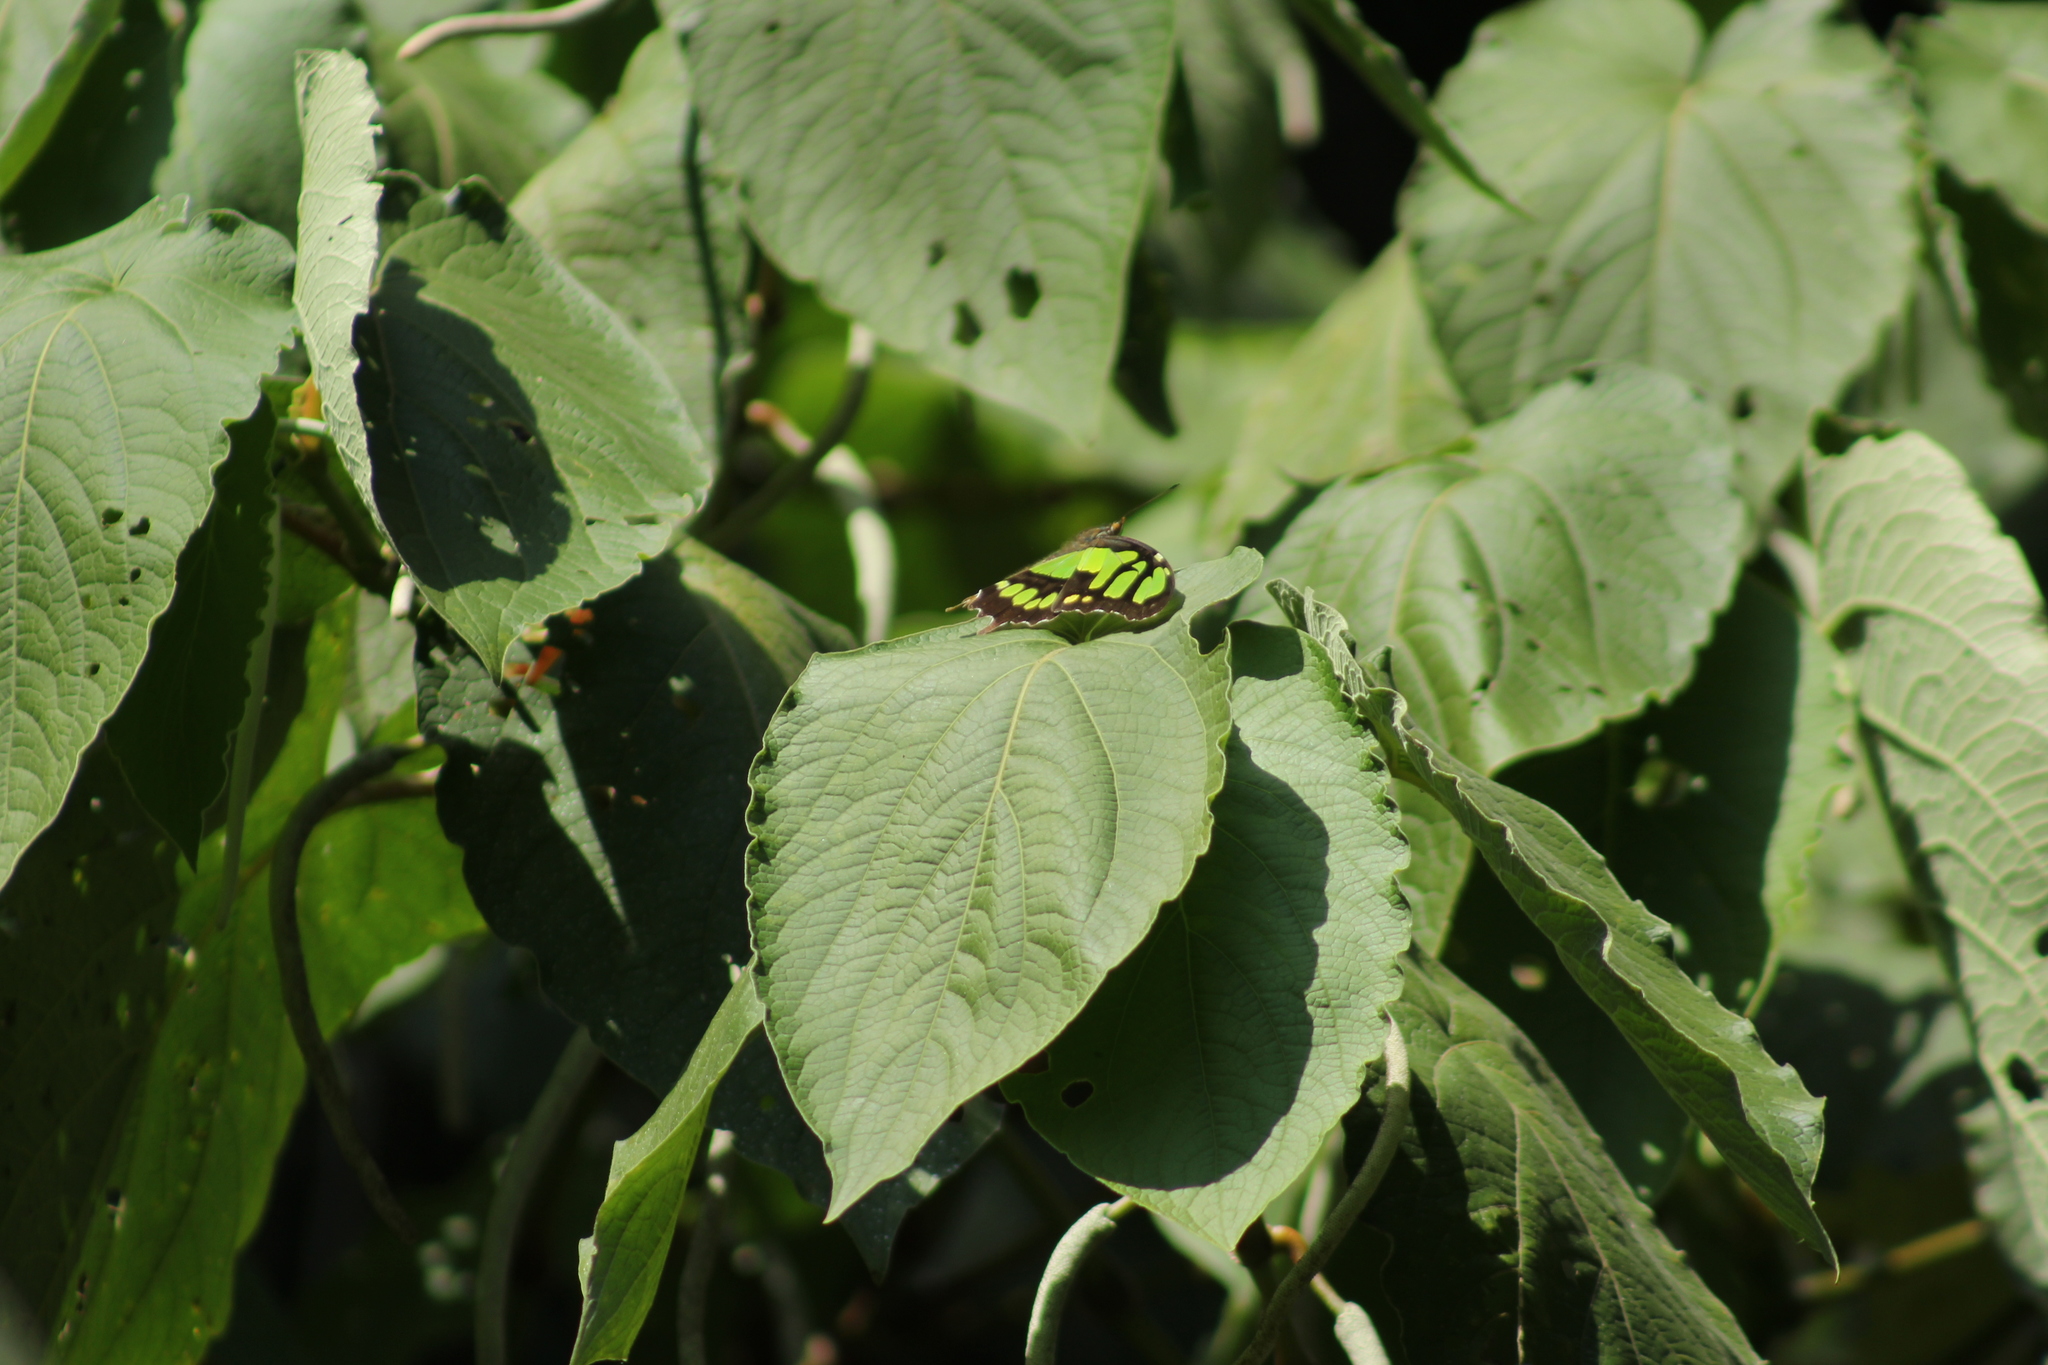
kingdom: Animalia
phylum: Arthropoda
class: Insecta
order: Lepidoptera
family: Nymphalidae
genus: Siproeta
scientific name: Siproeta stelenes
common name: Malachite
